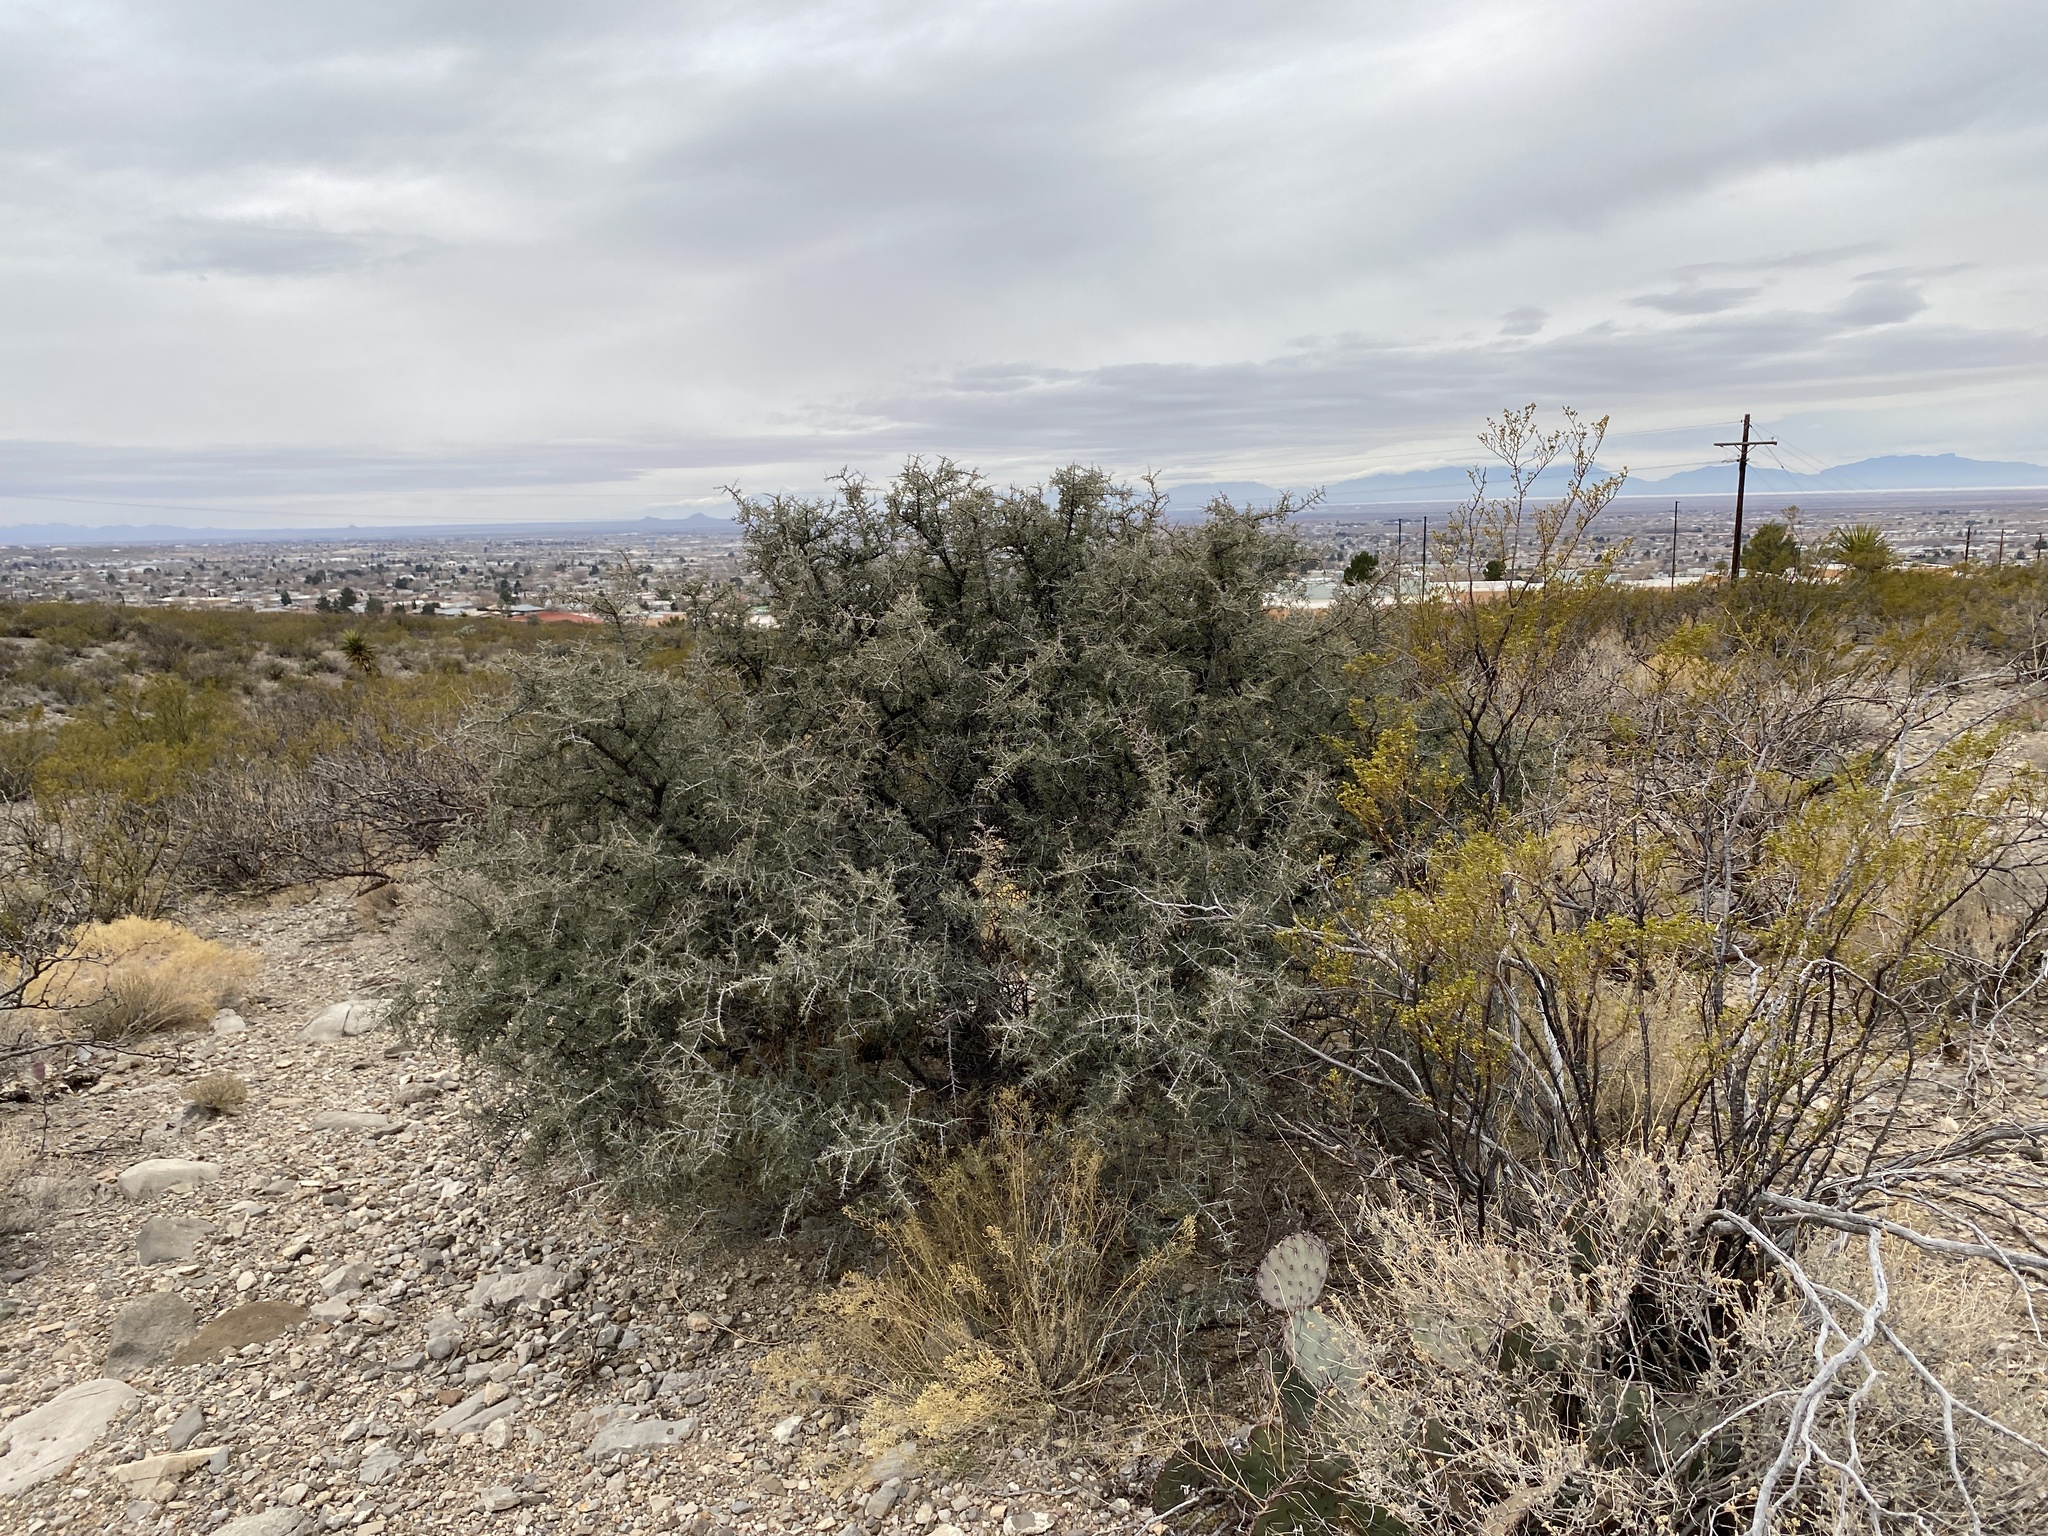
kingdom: Plantae
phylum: Tracheophyta
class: Magnoliopsida
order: Rosales
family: Rhamnaceae
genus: Condalia
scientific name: Condalia warnockii
